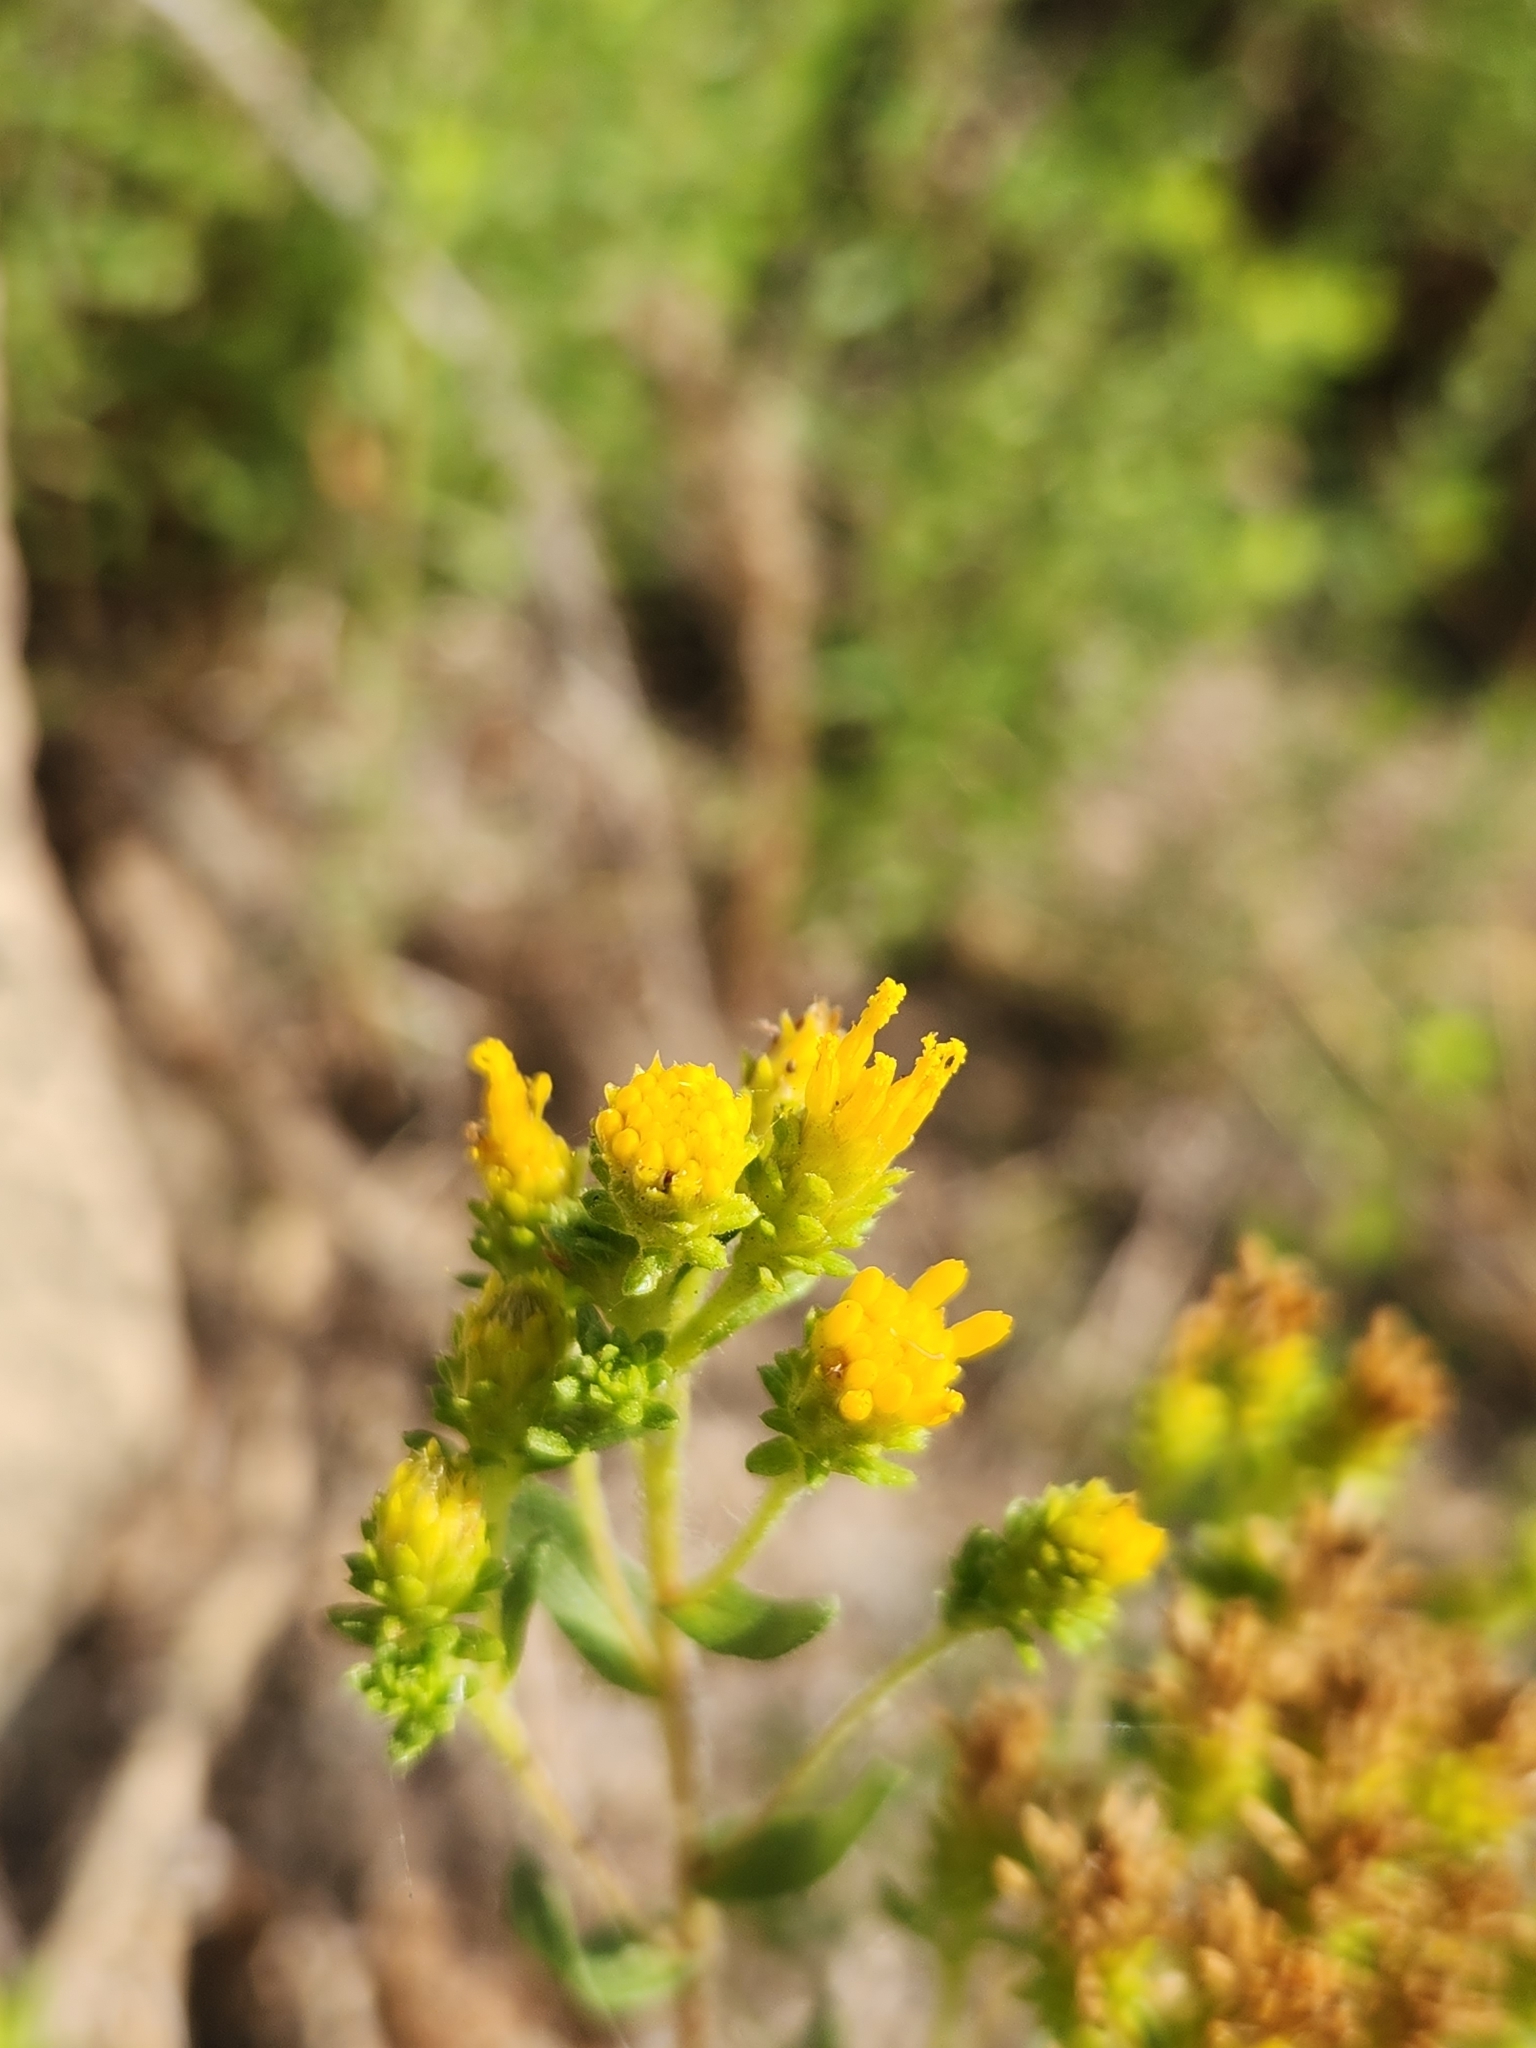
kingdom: Plantae
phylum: Tracheophyta
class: Magnoliopsida
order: Asterales
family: Asteraceae
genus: Isocoma
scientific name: Isocoma menziesii
